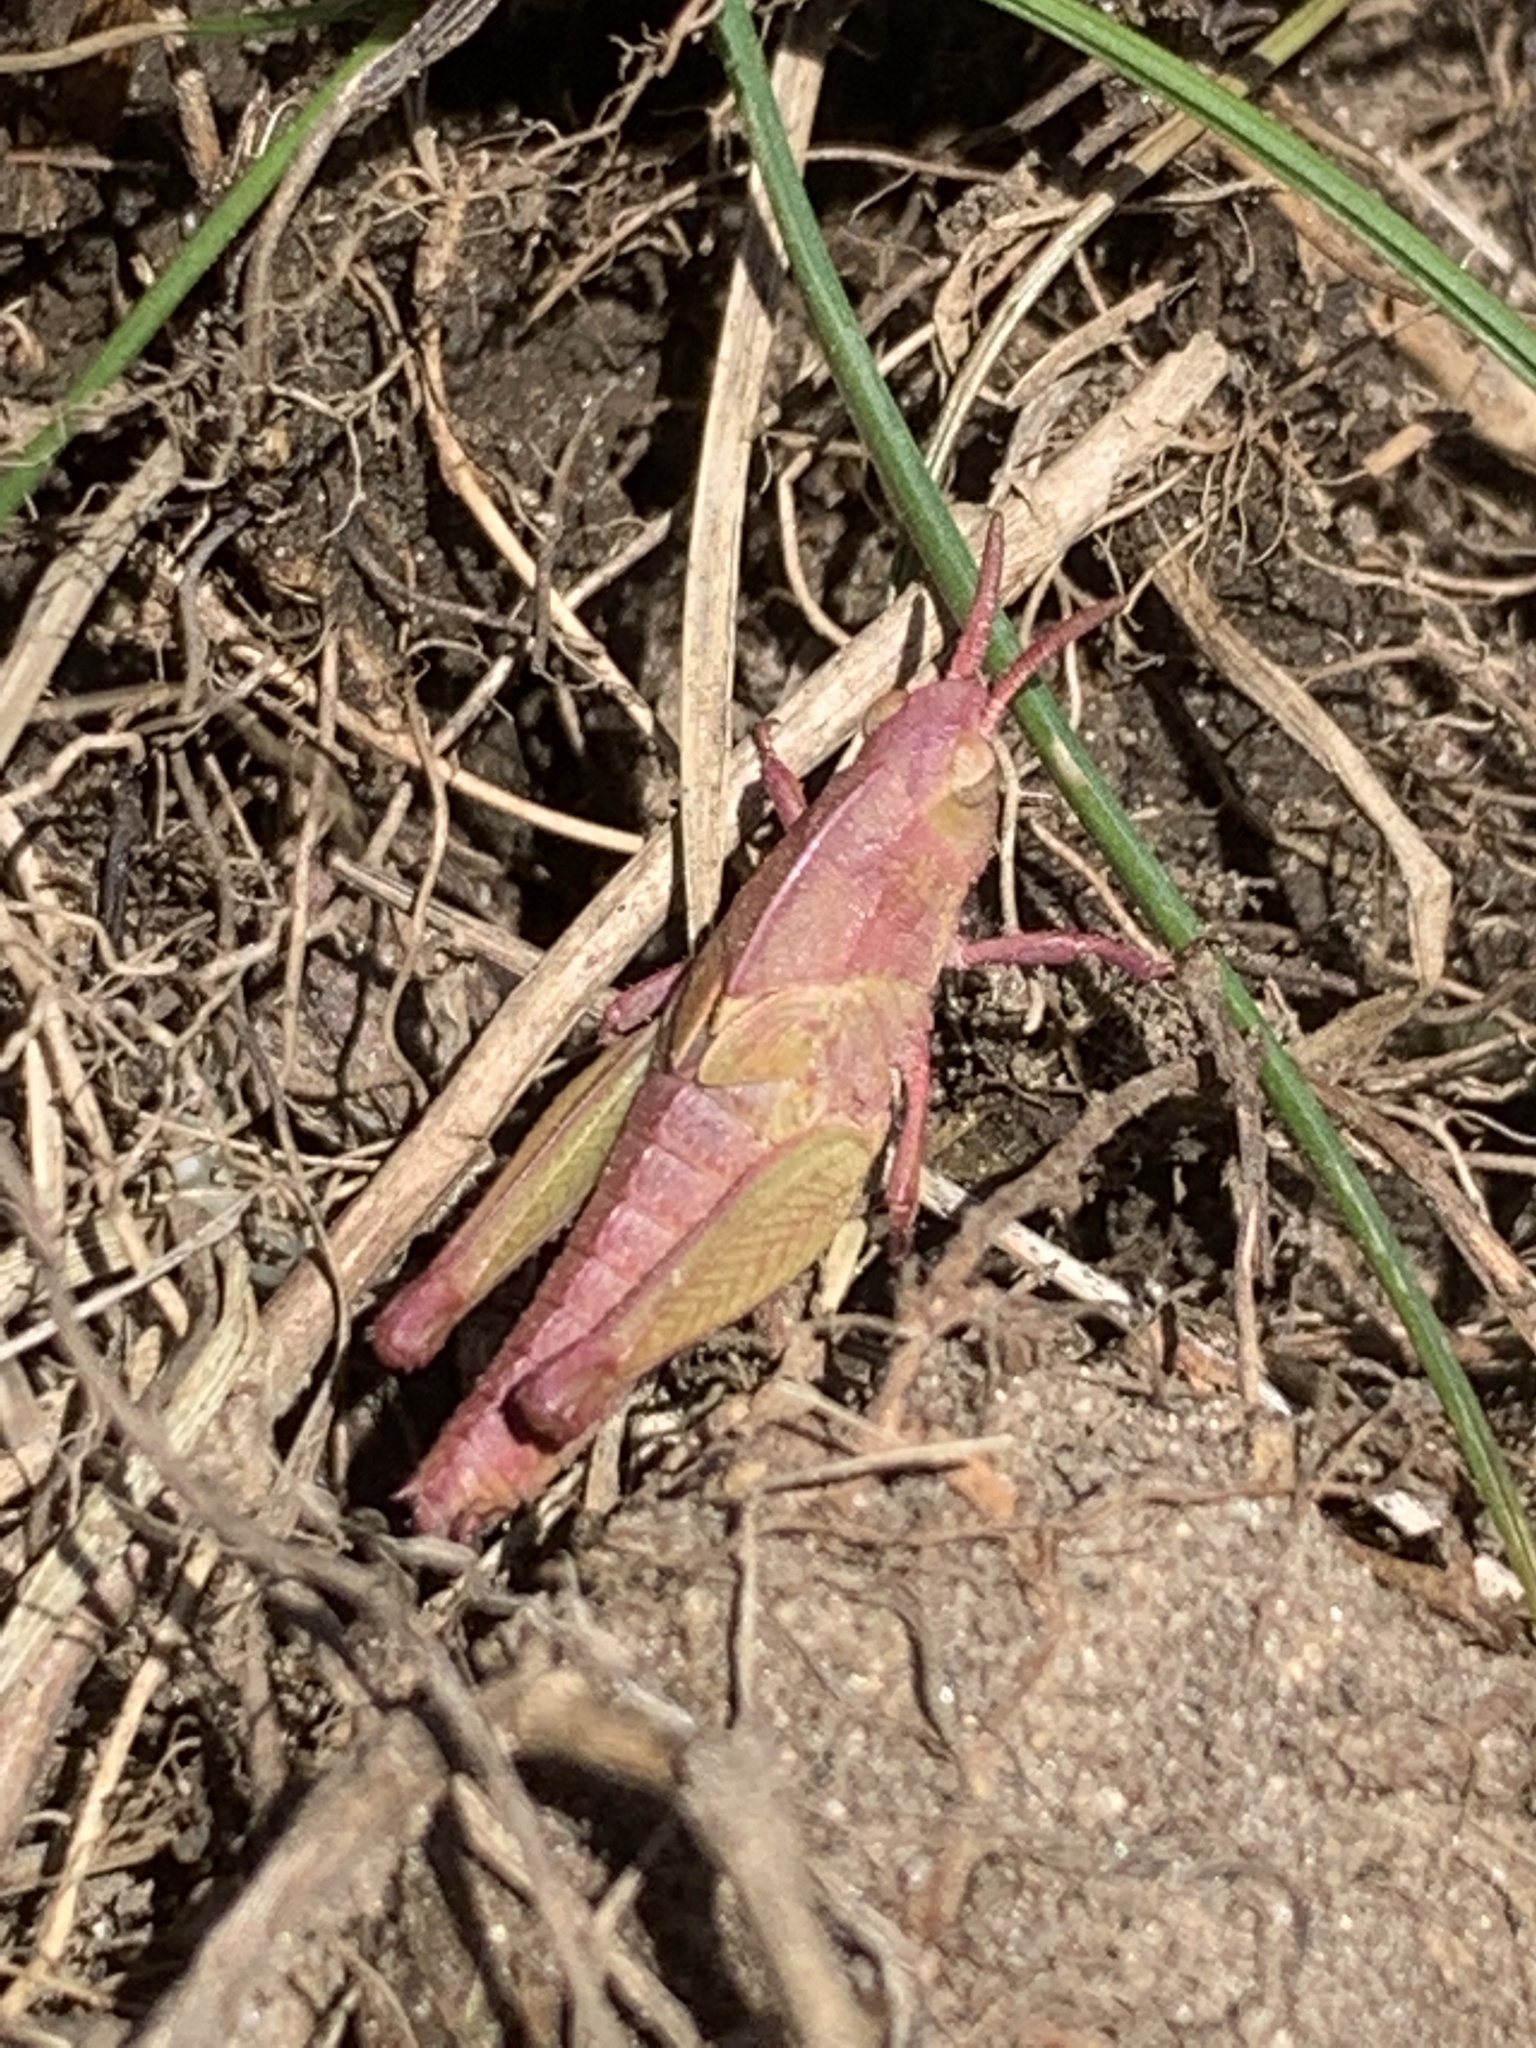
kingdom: Animalia
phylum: Arthropoda
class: Insecta
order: Orthoptera
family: Acrididae
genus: Chortophaga
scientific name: Chortophaga viridifasciata
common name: Green-striped grasshopper
